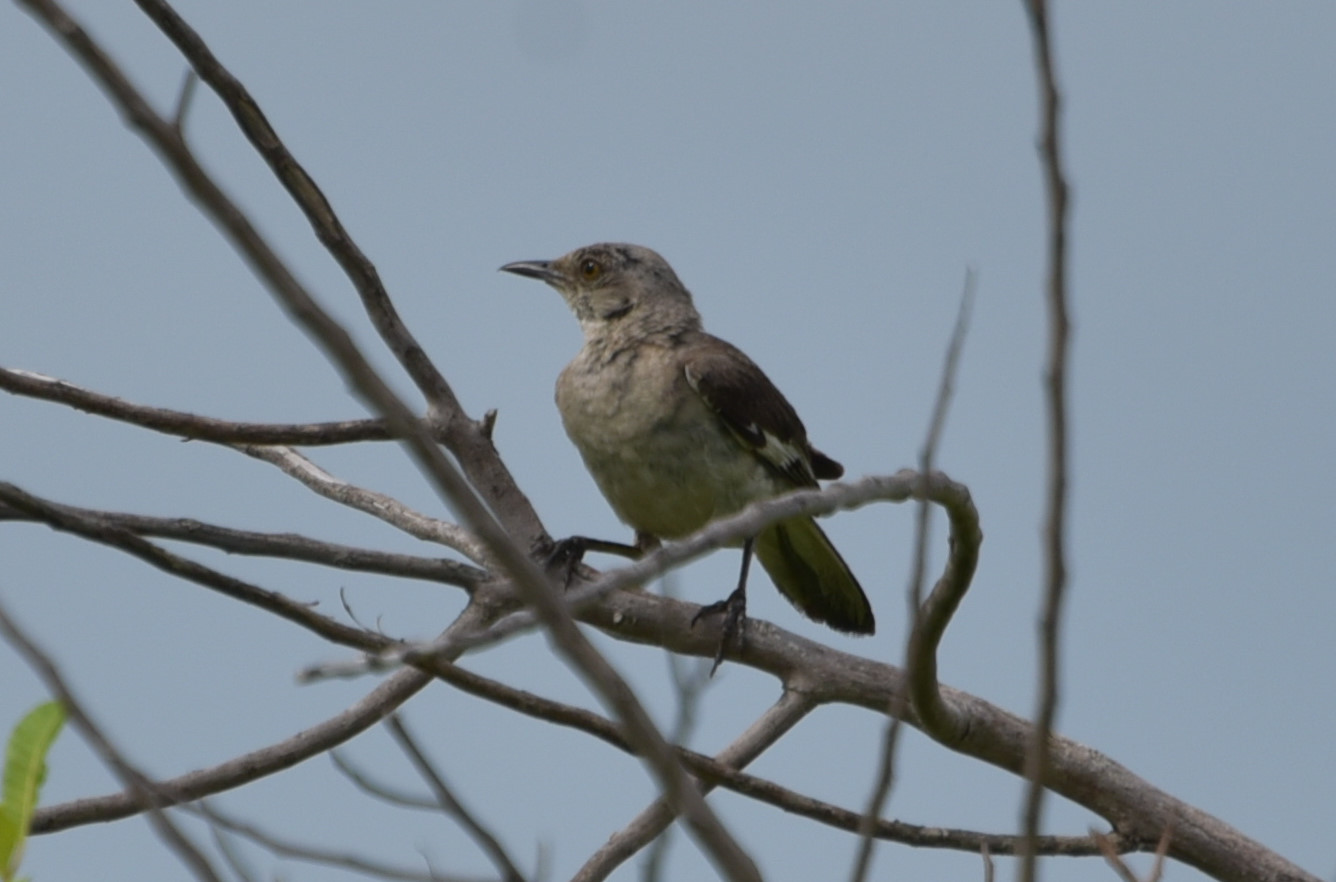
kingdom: Animalia
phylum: Chordata
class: Aves
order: Passeriformes
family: Mimidae
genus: Mimus
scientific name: Mimus polyglottos
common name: Northern mockingbird
